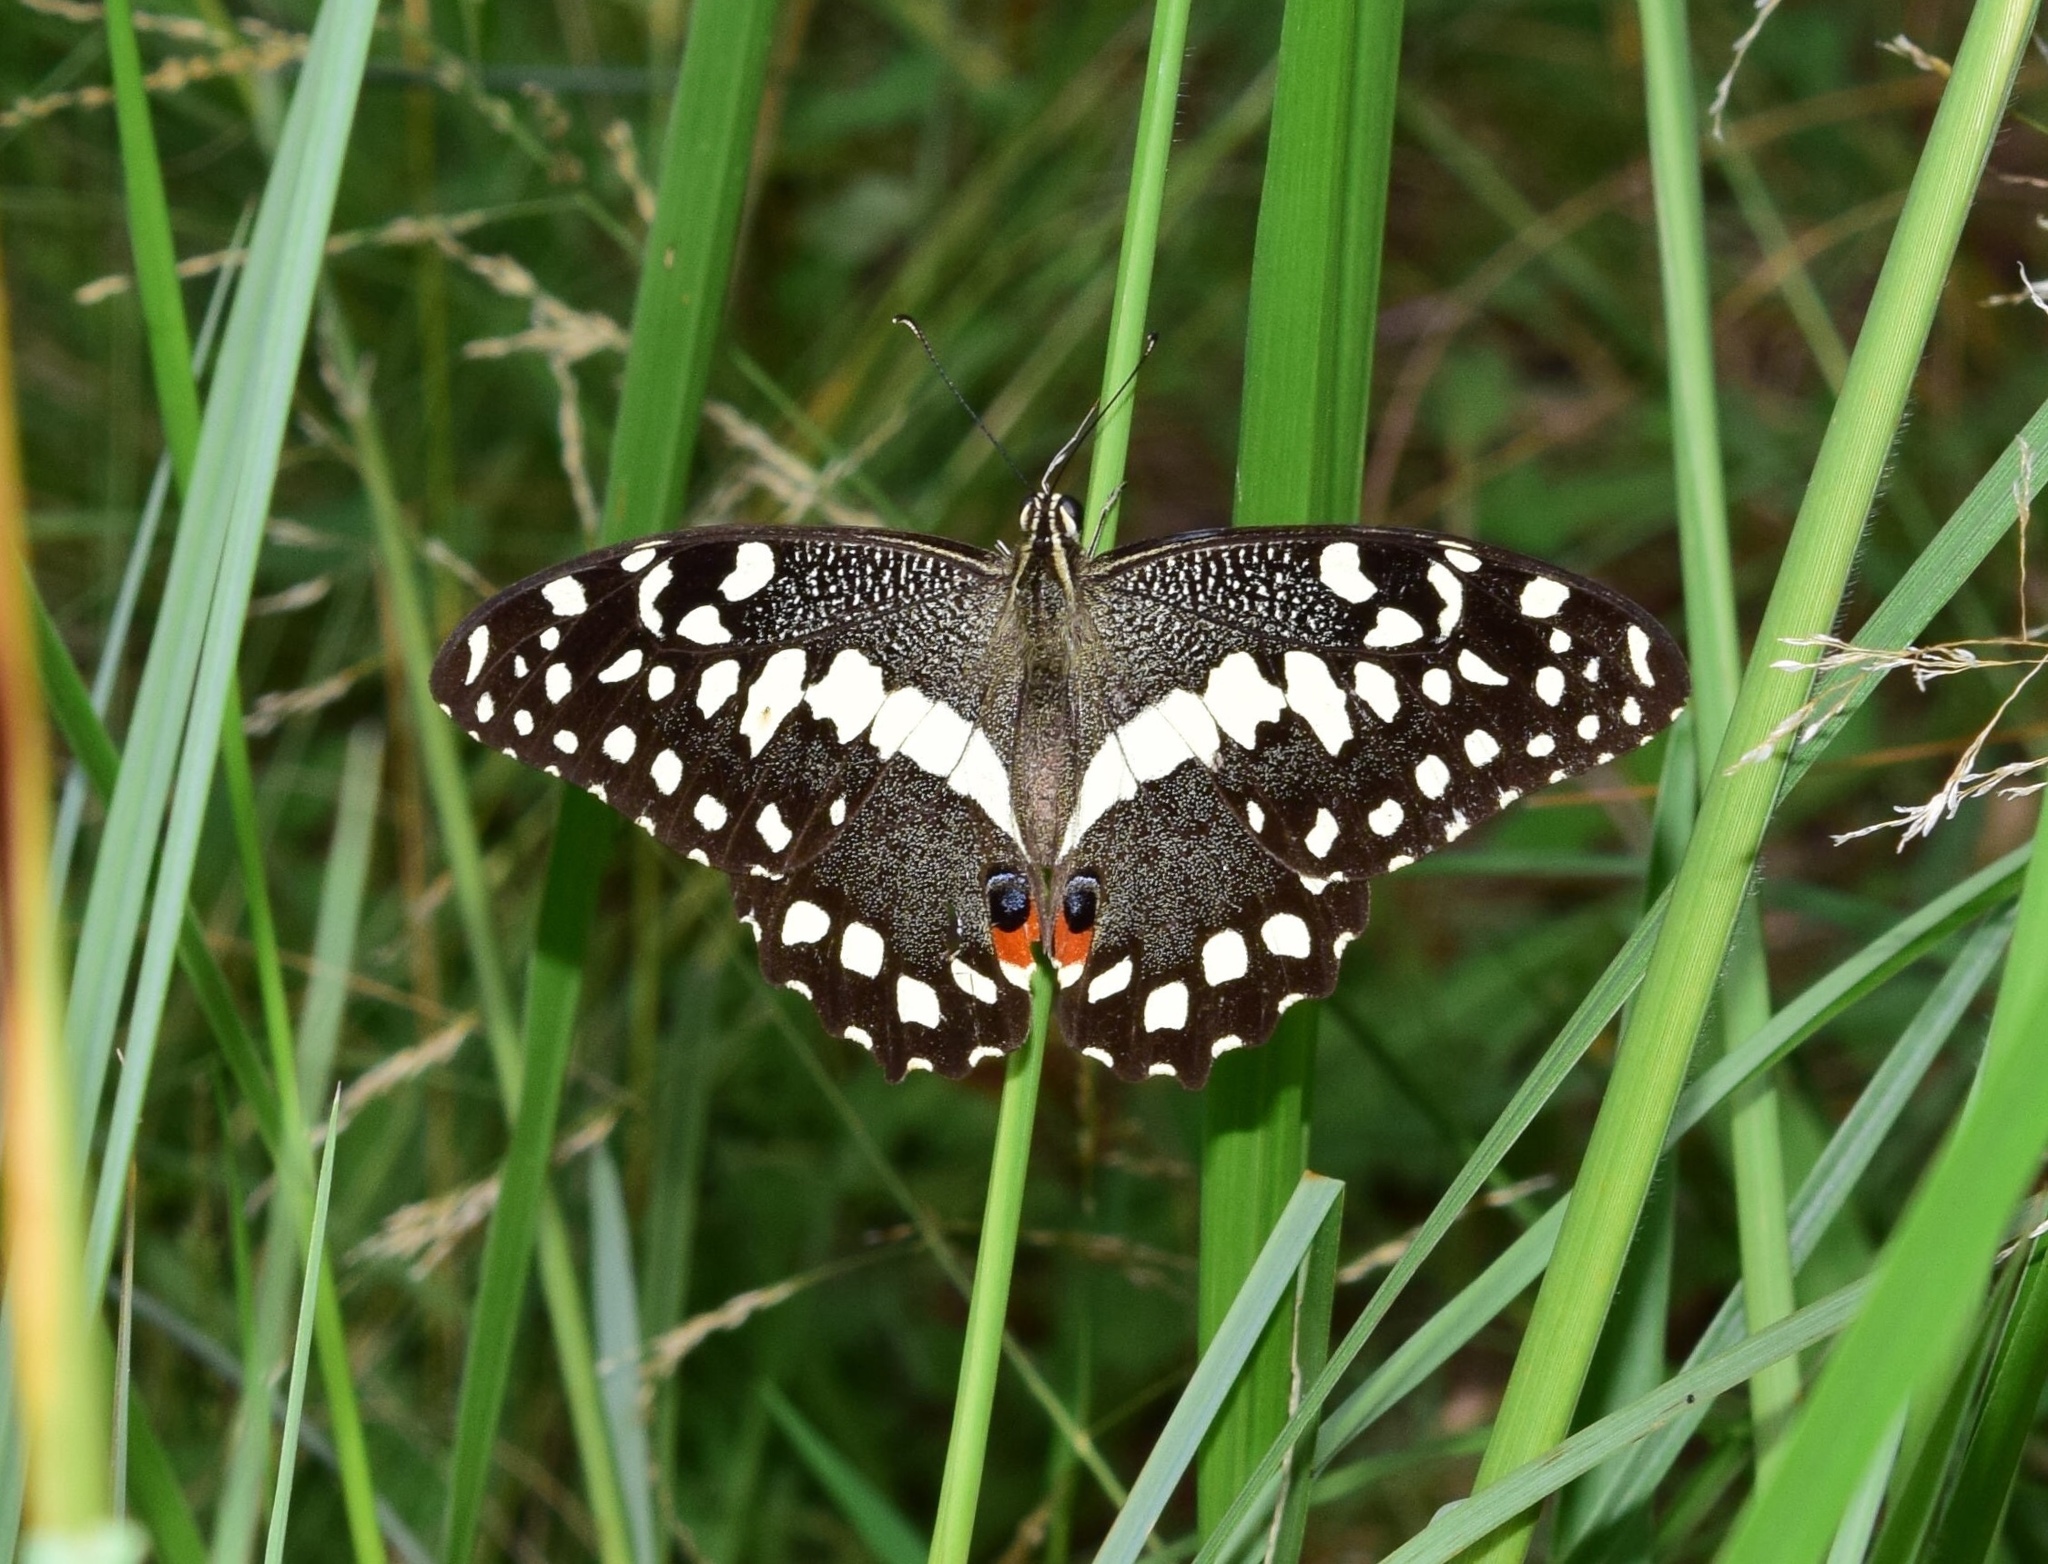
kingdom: Animalia
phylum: Arthropoda
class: Insecta
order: Lepidoptera
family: Papilionidae
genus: Papilio
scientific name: Papilio demodocus
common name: Christmas butterfly
